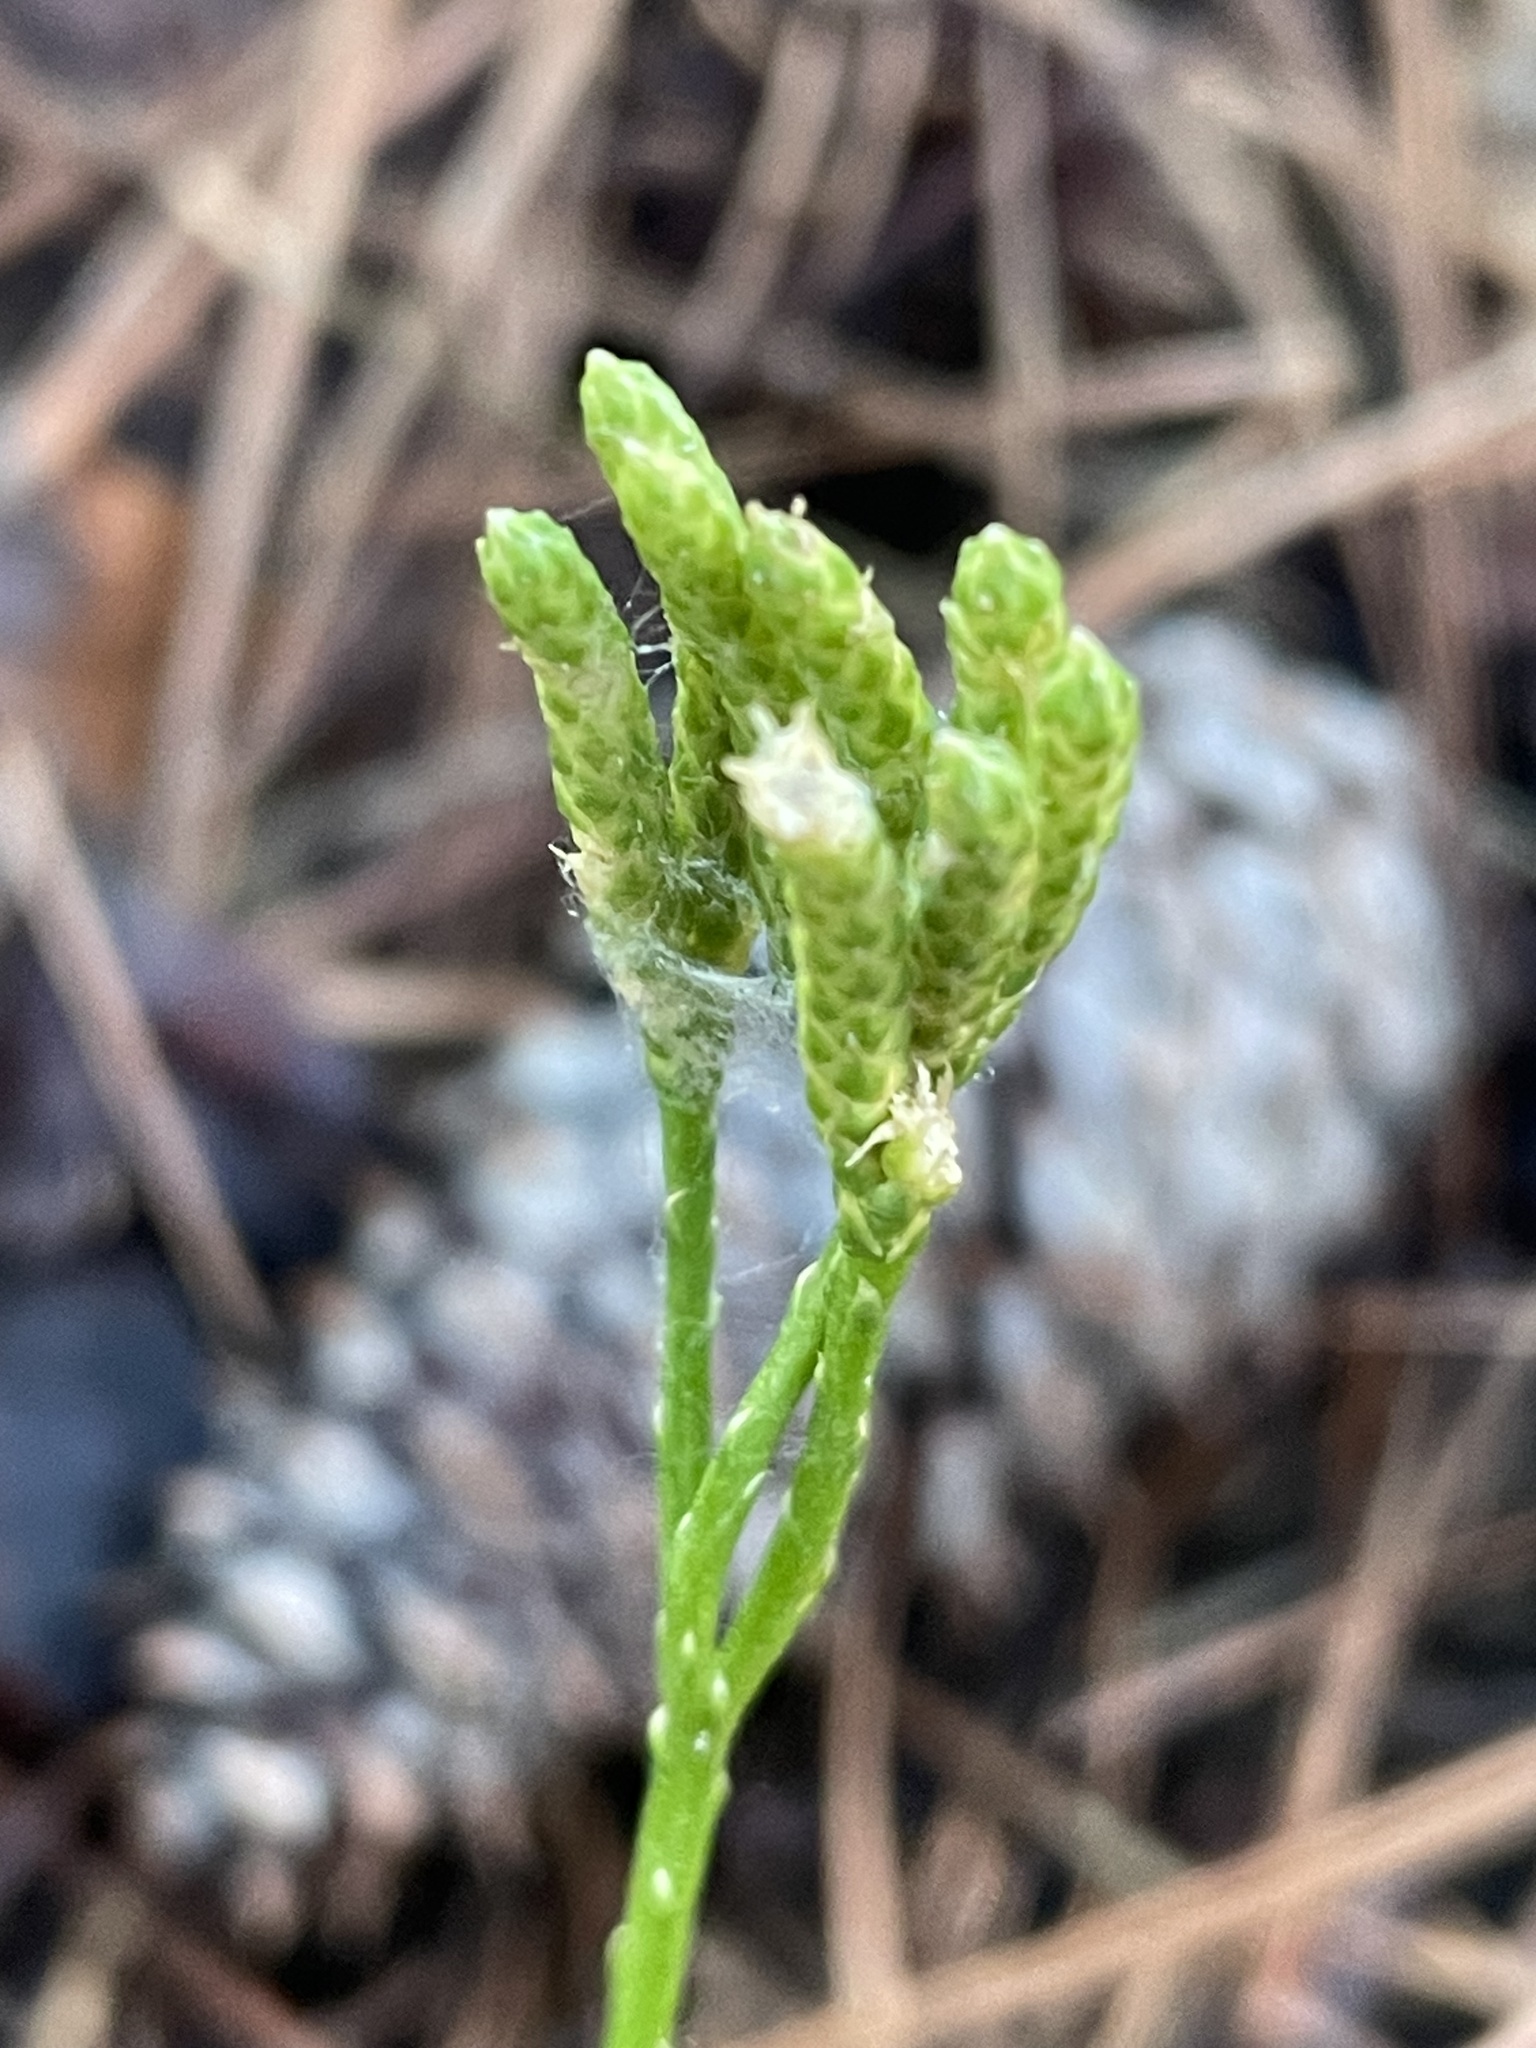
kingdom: Plantae
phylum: Tracheophyta
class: Lycopodiopsida
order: Lycopodiales
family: Lycopodiaceae
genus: Diphasiastrum
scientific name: Diphasiastrum digitatum
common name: Southern running-pine
